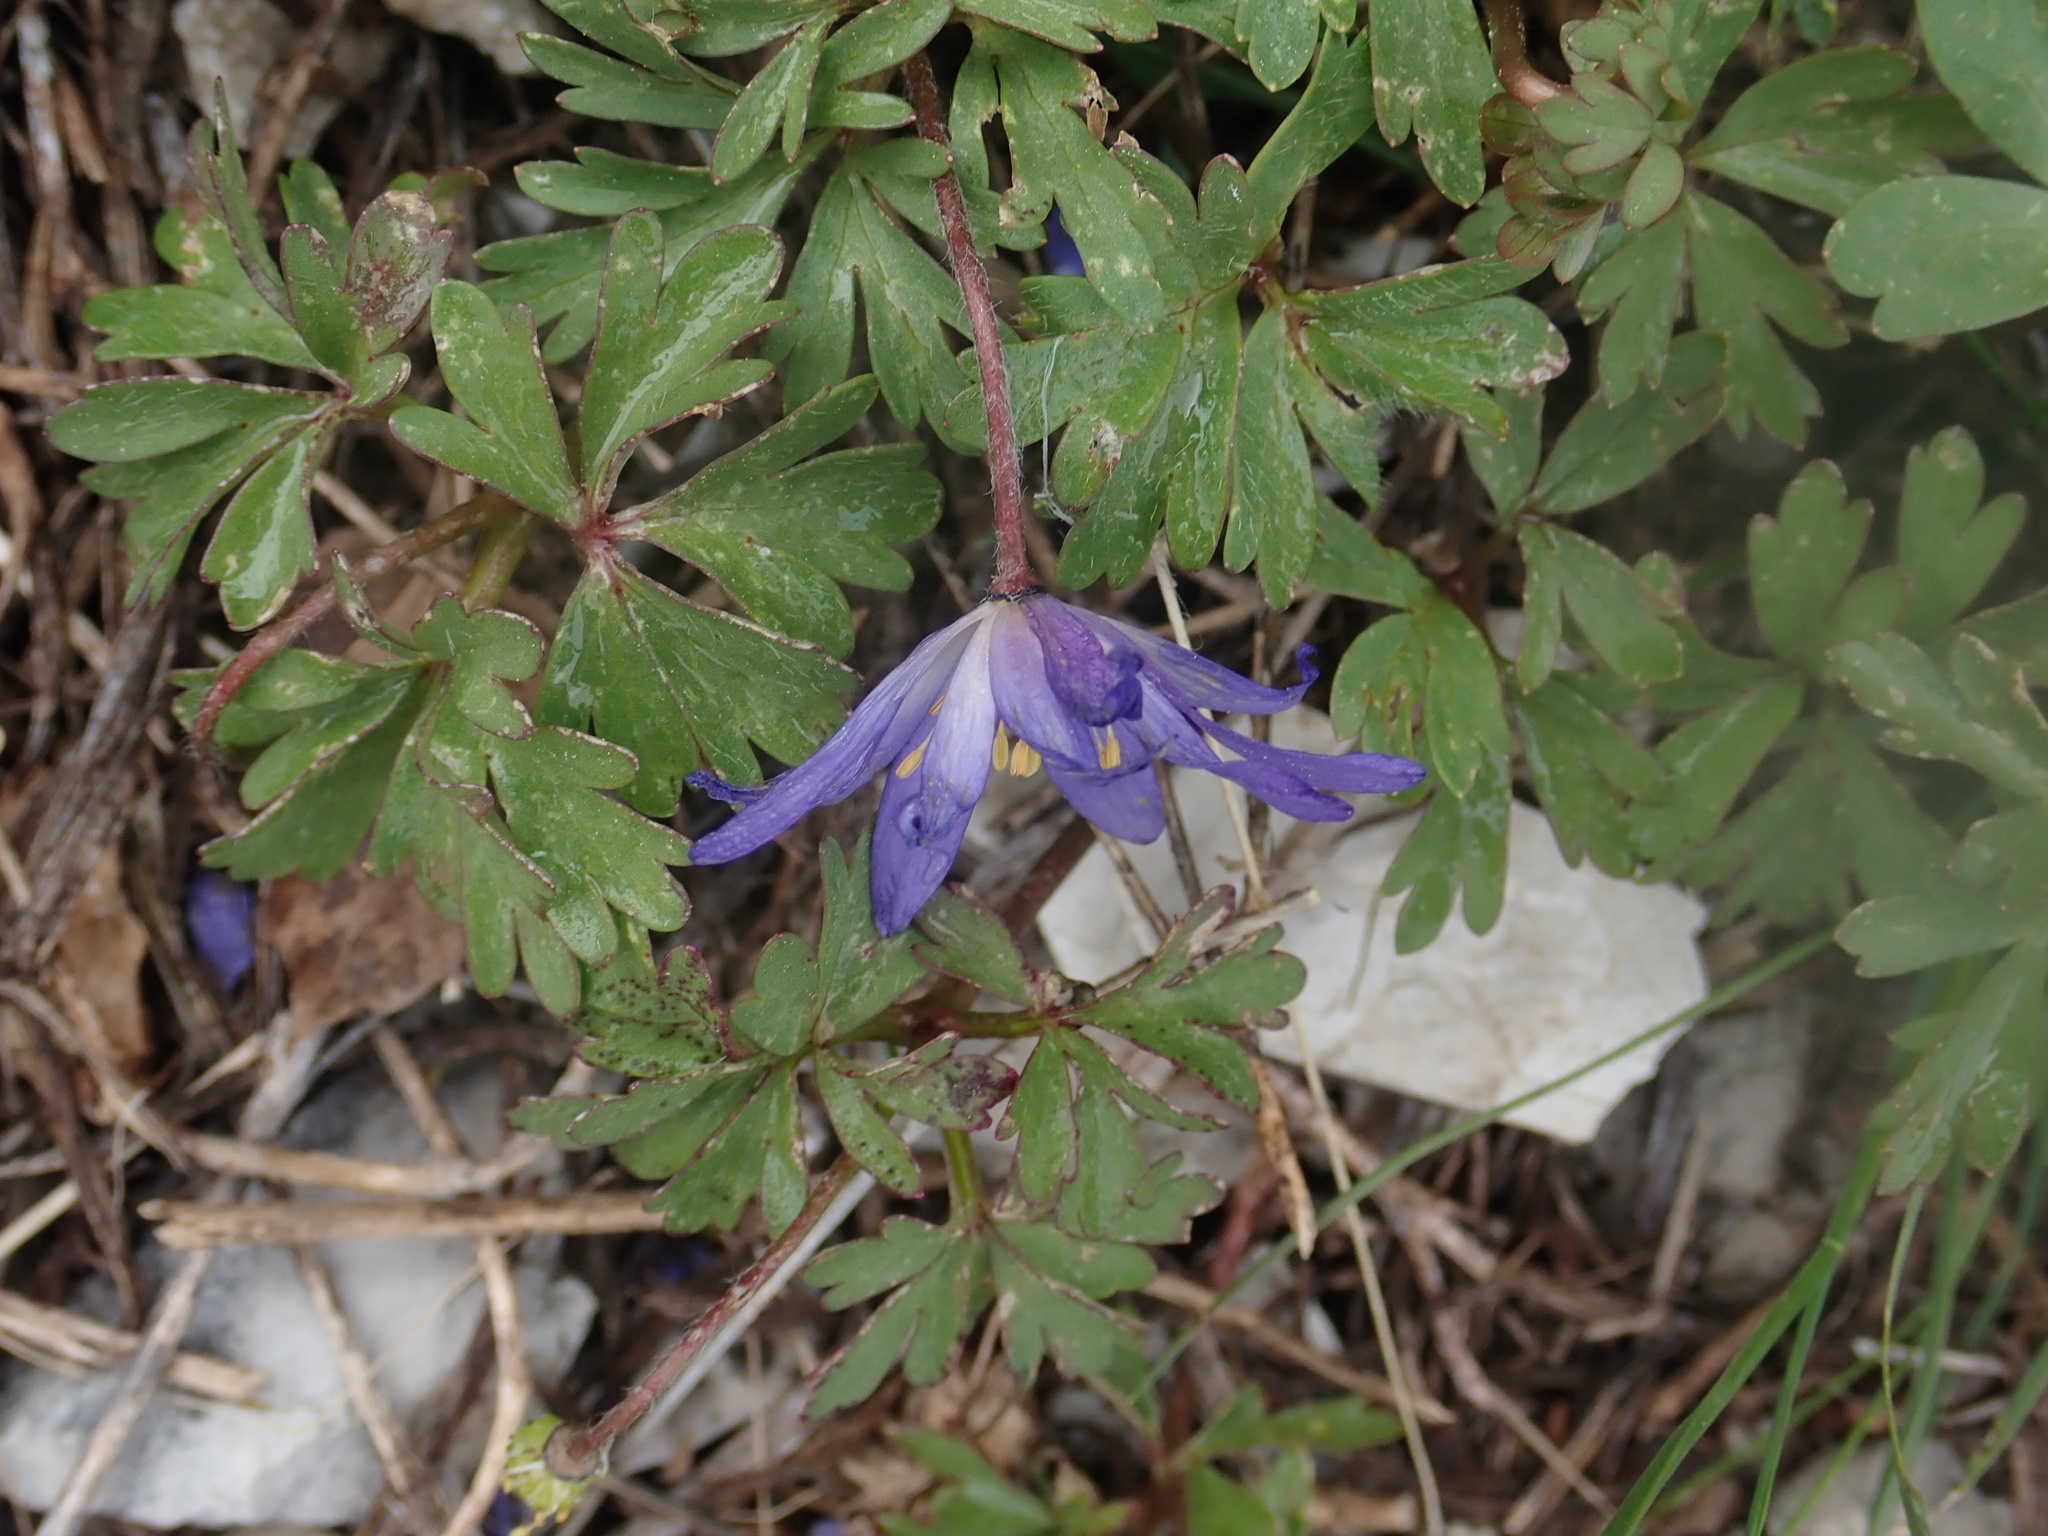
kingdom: Plantae
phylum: Tracheophyta
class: Magnoliopsida
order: Ranunculales
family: Ranunculaceae
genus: Anemone
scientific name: Anemone blanda
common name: Balkan anemone
